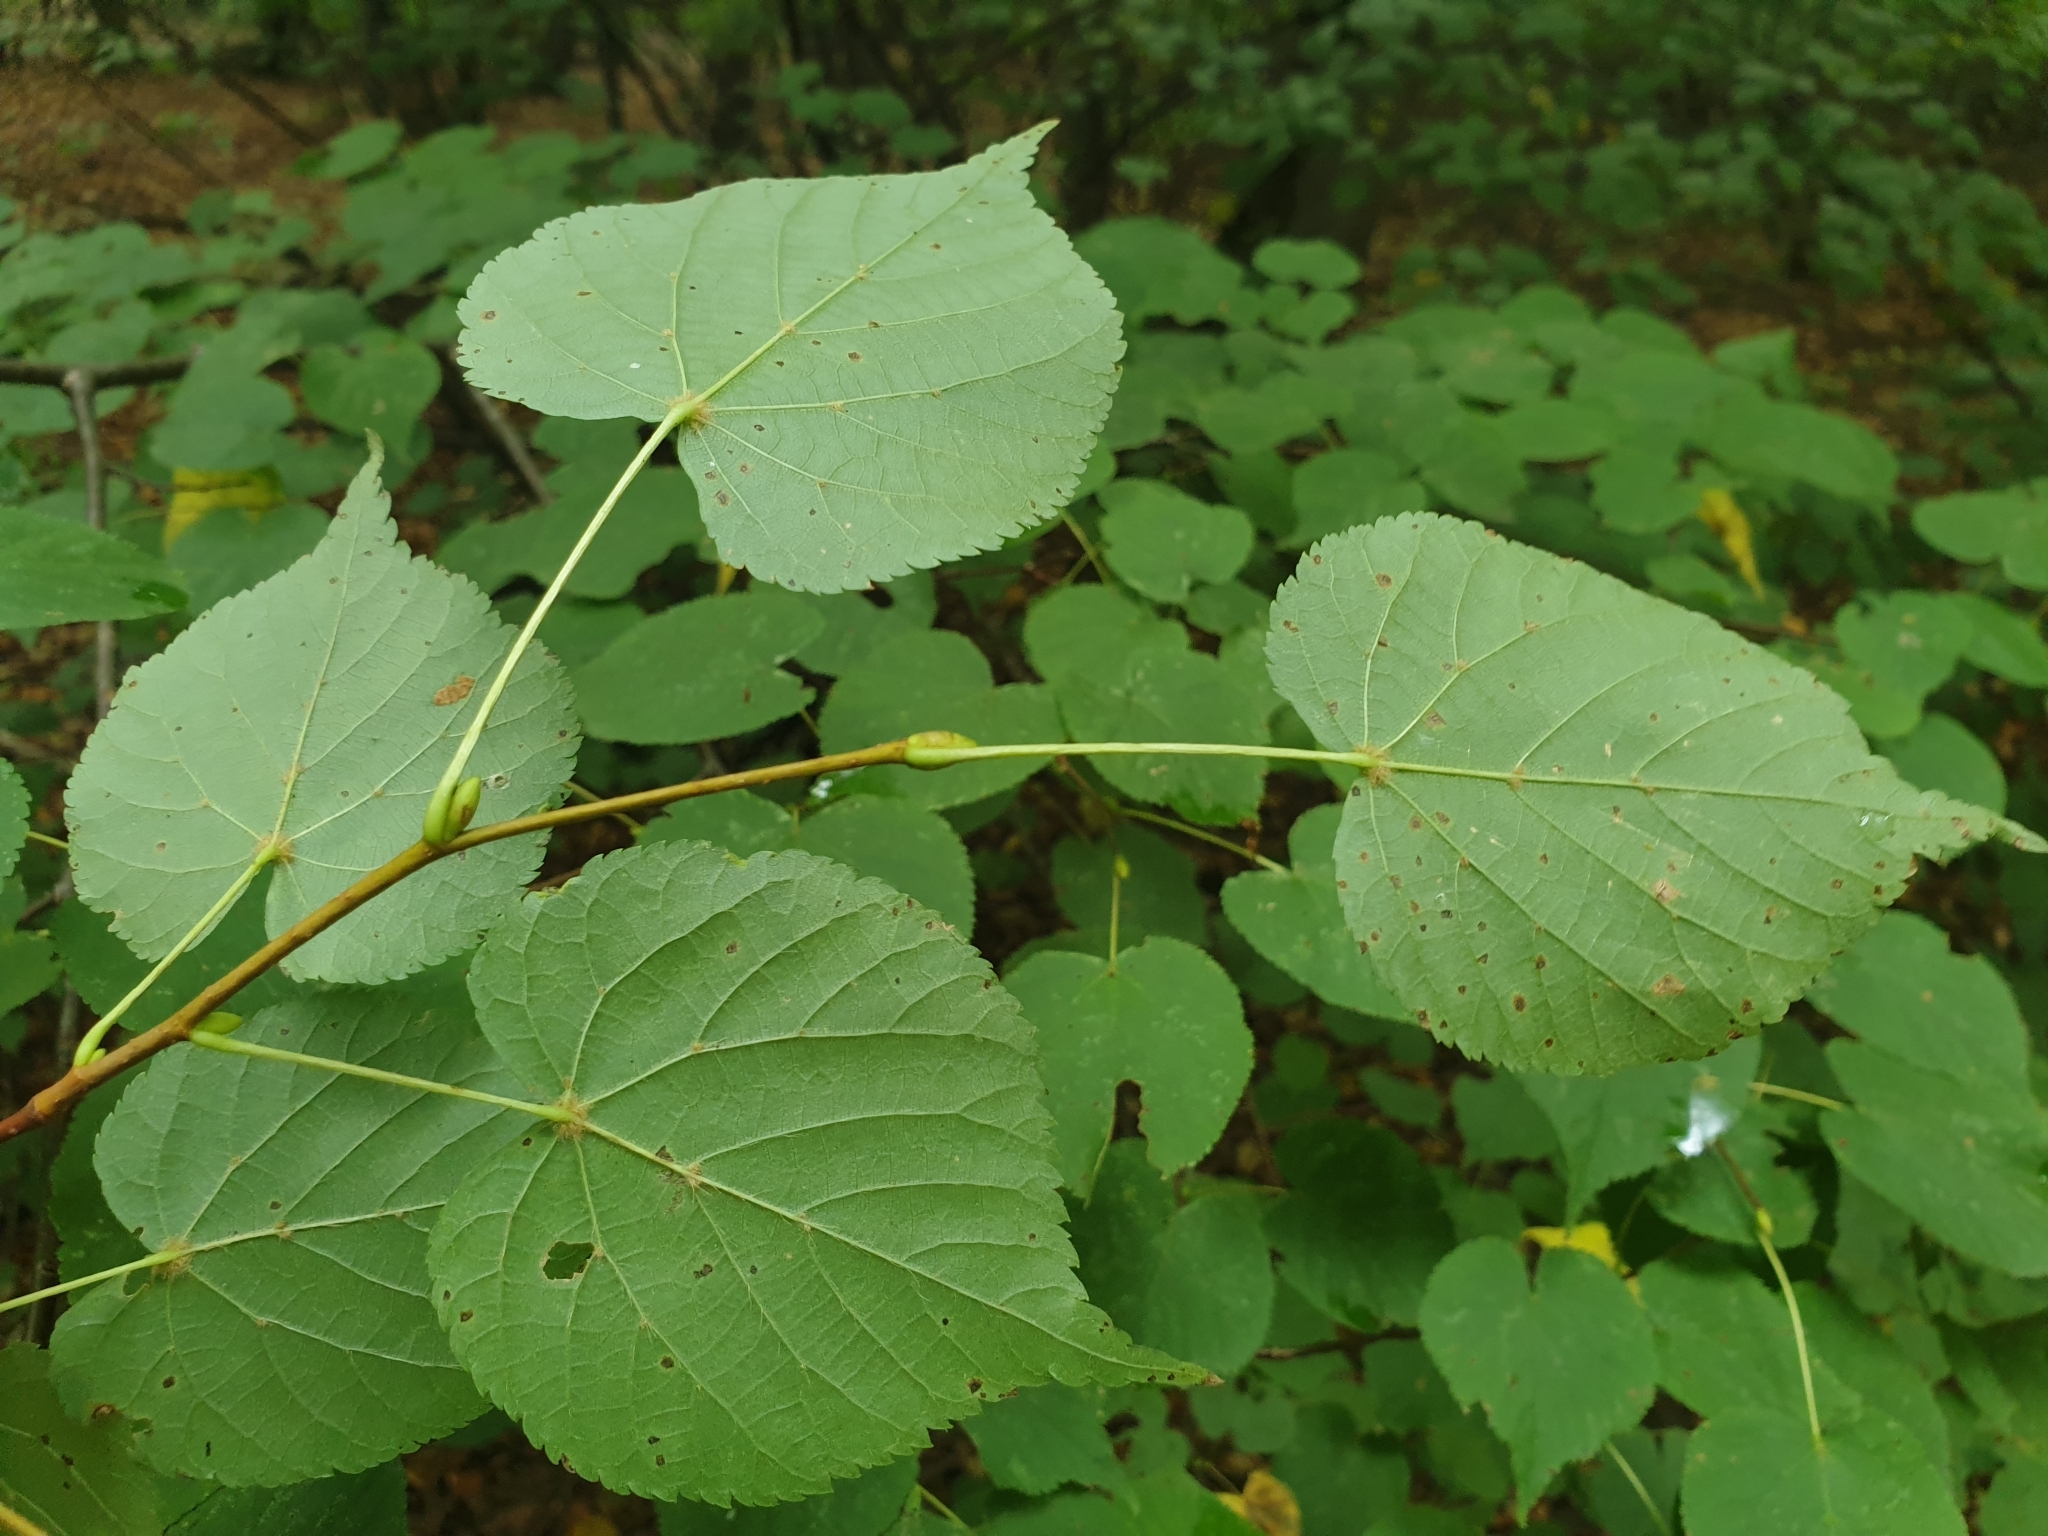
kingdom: Plantae
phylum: Tracheophyta
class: Magnoliopsida
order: Malvales
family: Malvaceae
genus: Tilia
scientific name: Tilia cordata
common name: Small-leaved lime
